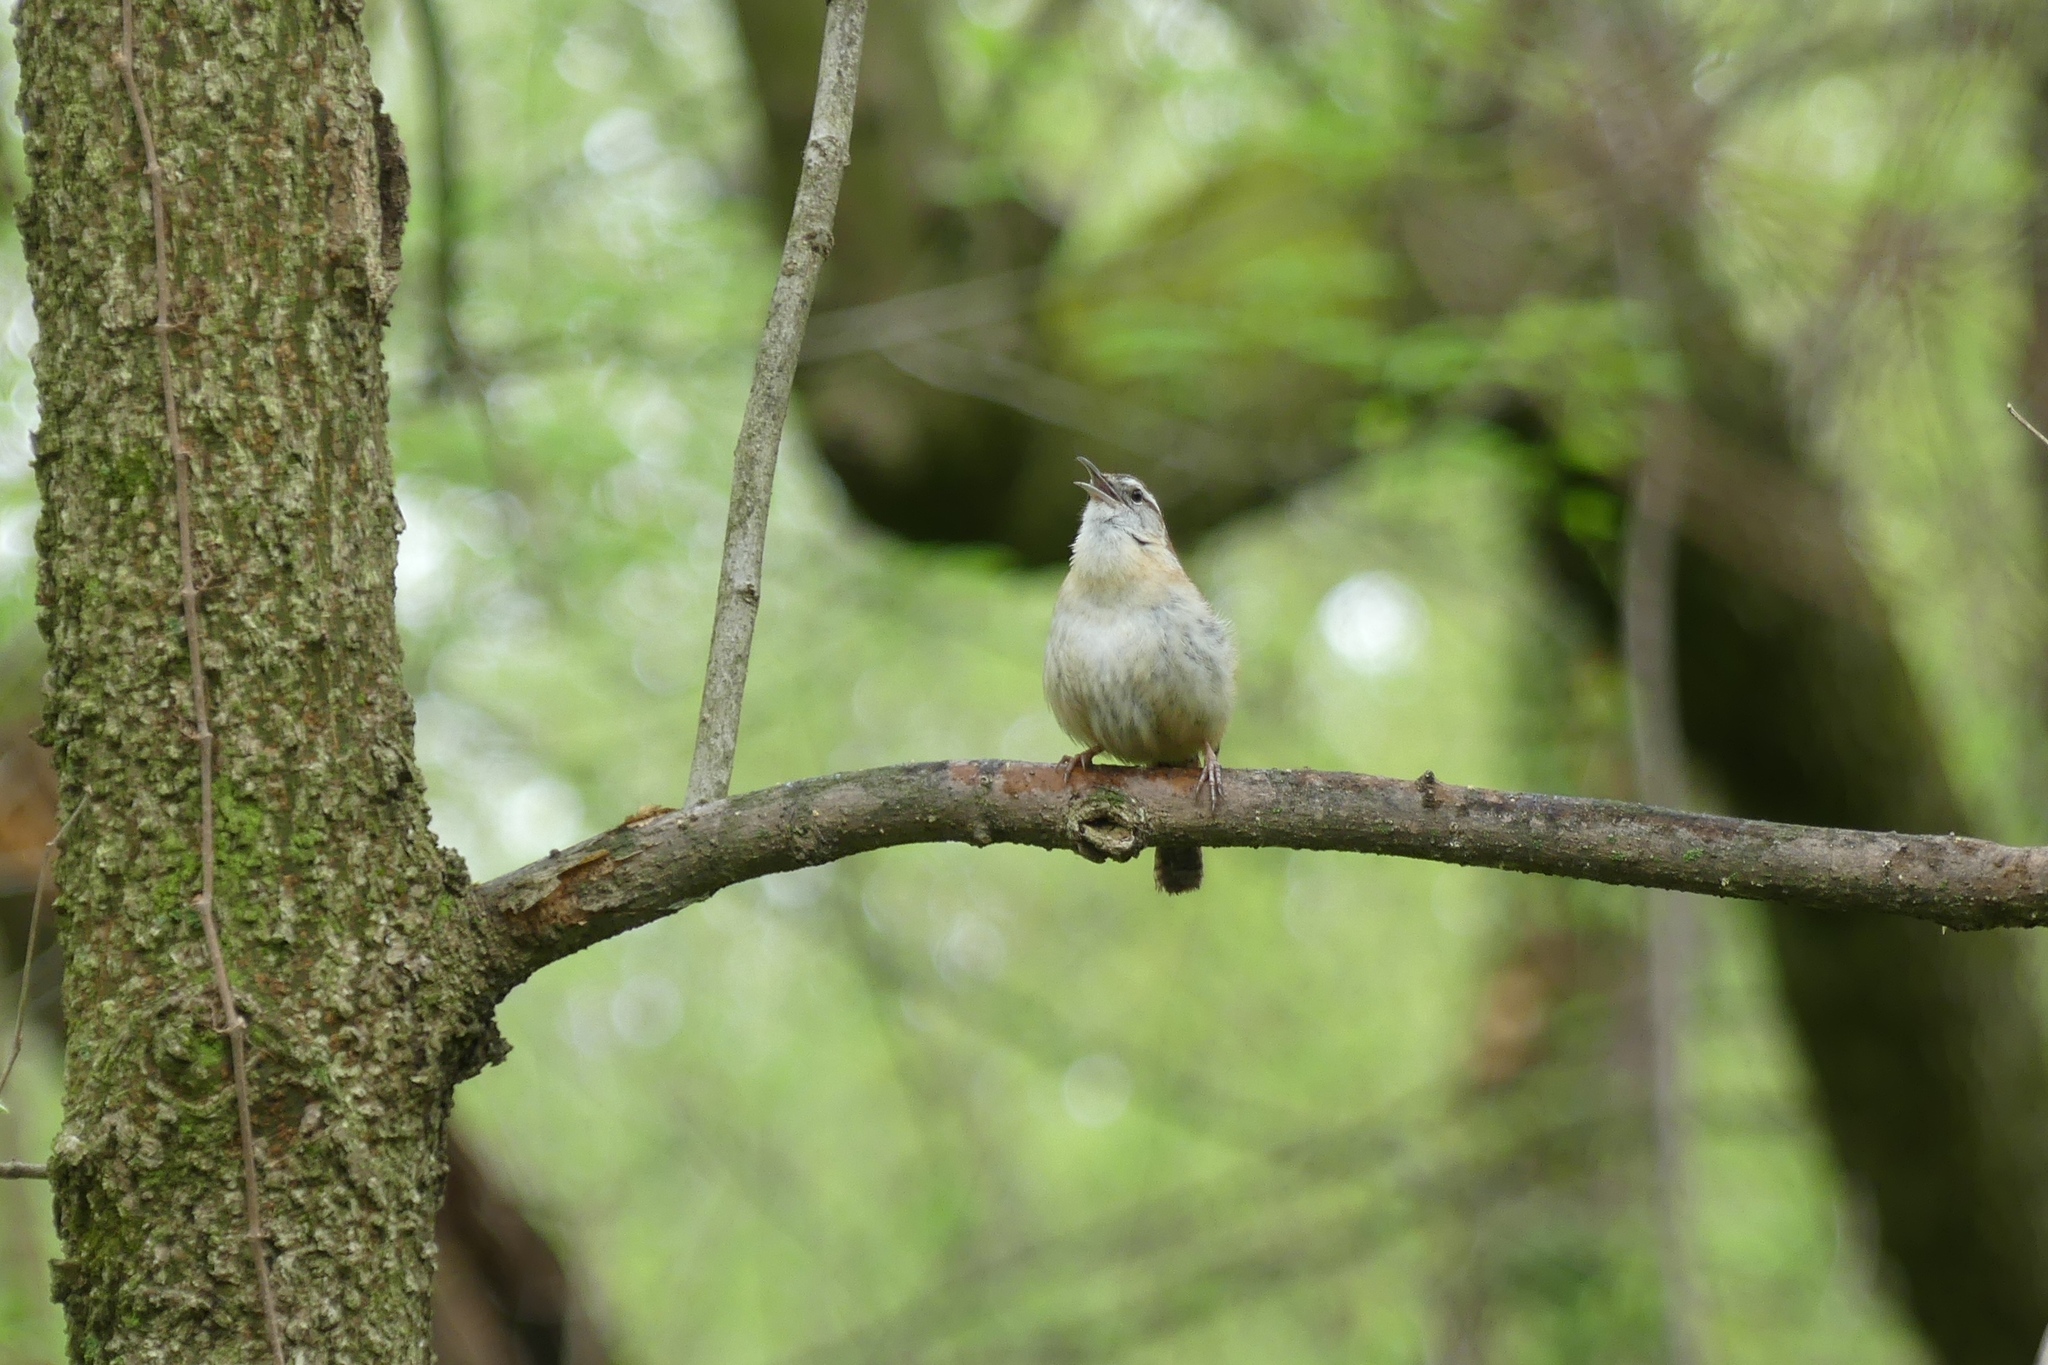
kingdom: Animalia
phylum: Chordata
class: Aves
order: Passeriformes
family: Troglodytidae
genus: Thryothorus
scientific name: Thryothorus ludovicianus
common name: Carolina wren
